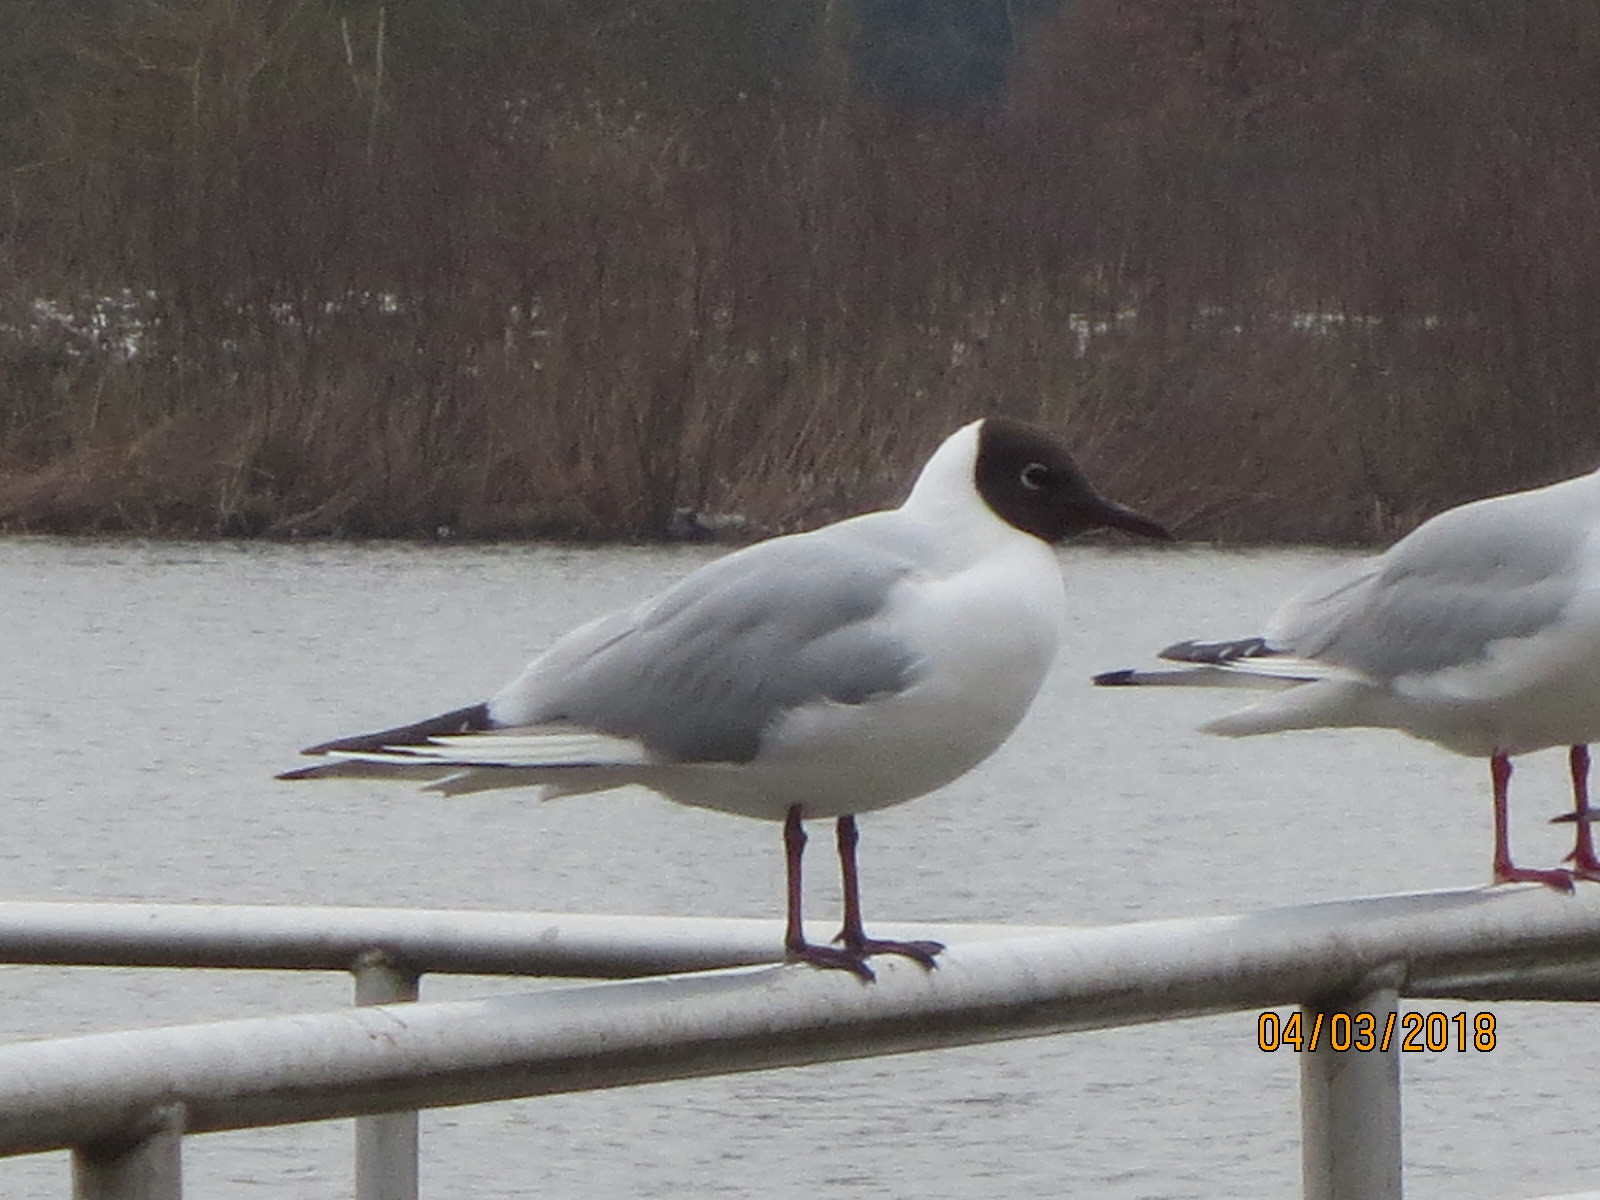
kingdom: Animalia
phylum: Chordata
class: Aves
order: Charadriiformes
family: Laridae
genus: Chroicocephalus
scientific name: Chroicocephalus ridibundus
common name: Black-headed gull
